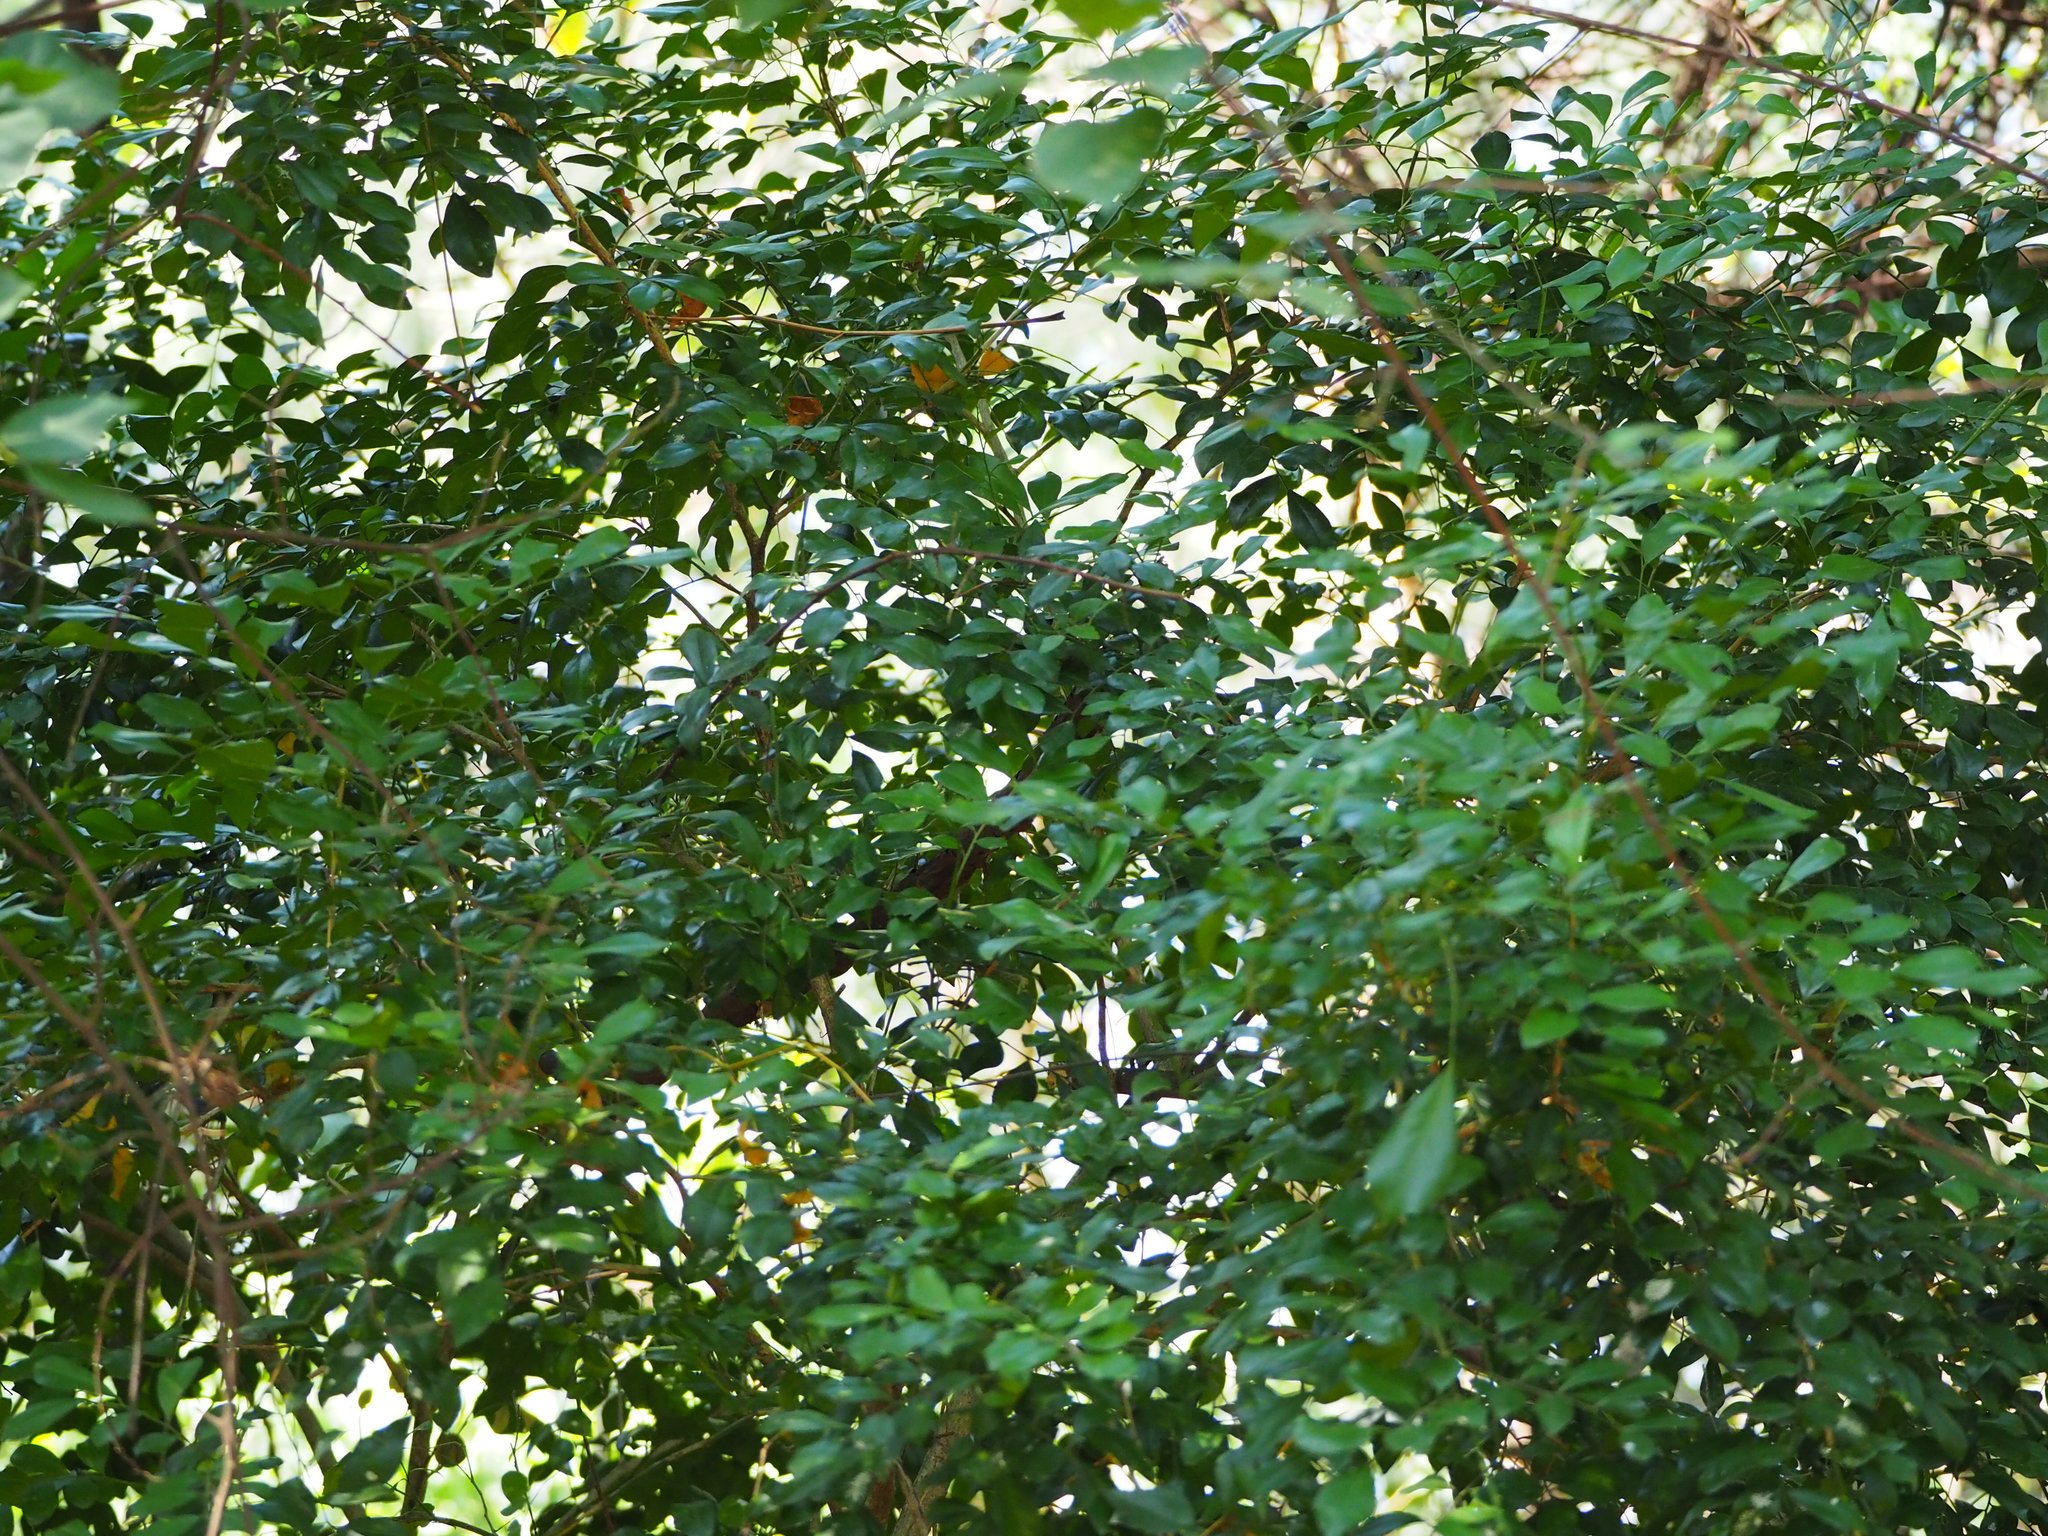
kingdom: Plantae
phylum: Tracheophyta
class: Magnoliopsida
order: Sapindales
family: Rutaceae
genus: Murraya
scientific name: Murraya paniculata
